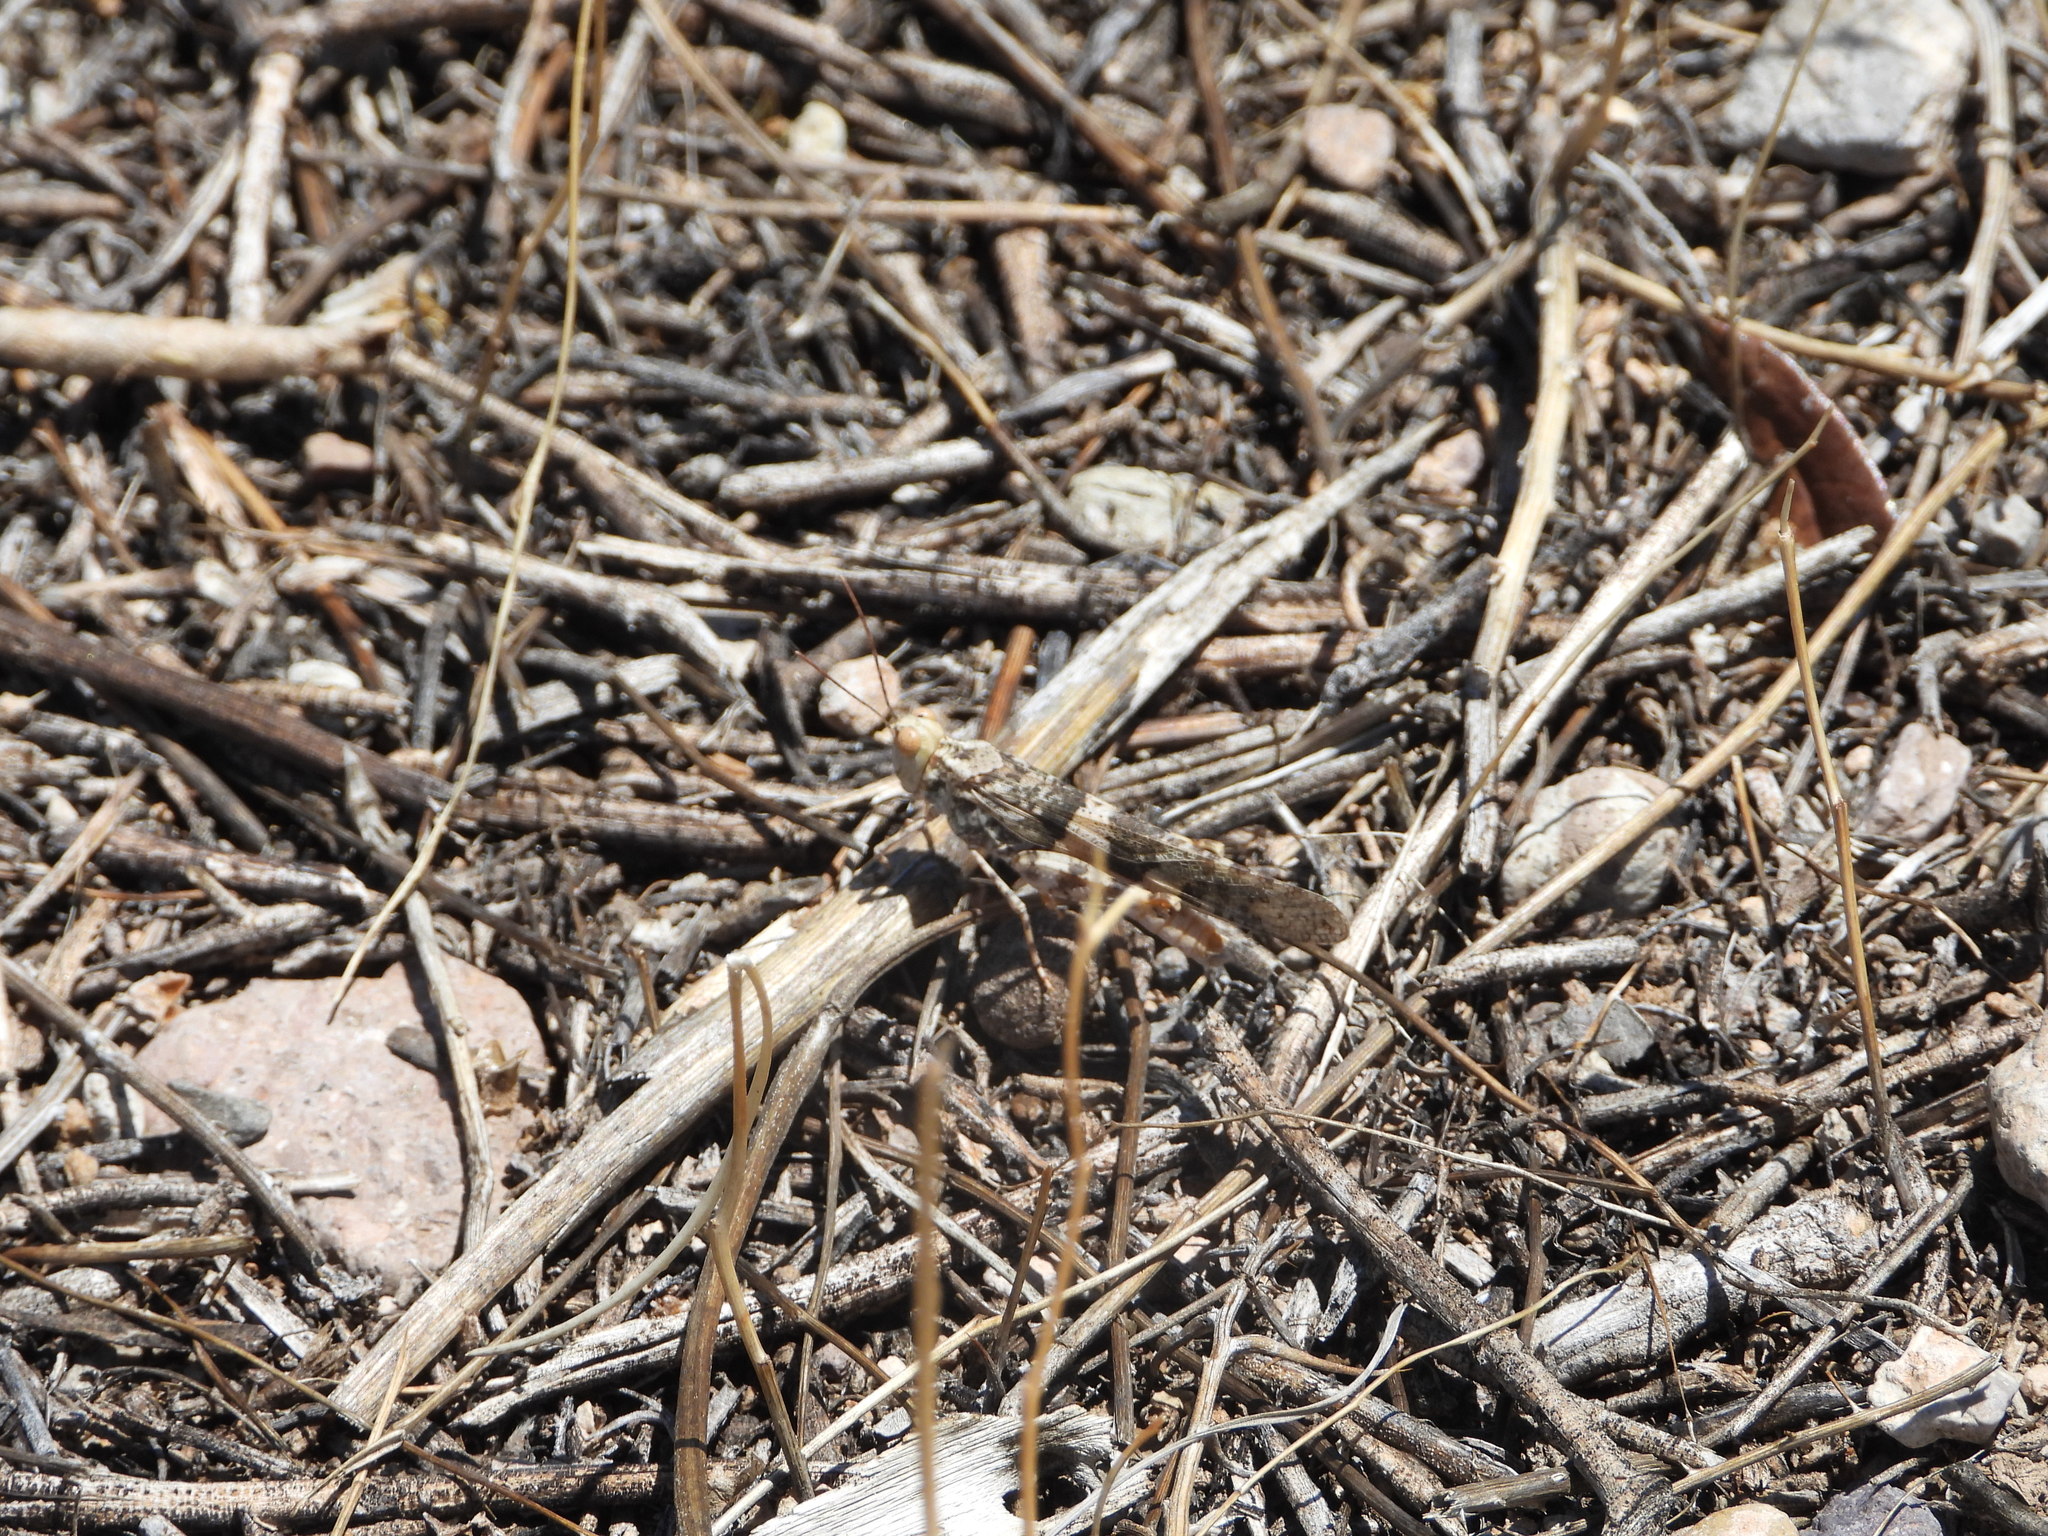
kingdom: Animalia
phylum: Arthropoda
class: Insecta
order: Orthoptera
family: Acrididae
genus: Trimerotropis
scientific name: Trimerotropis pallidipennis
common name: Pallid-winged grasshopper
